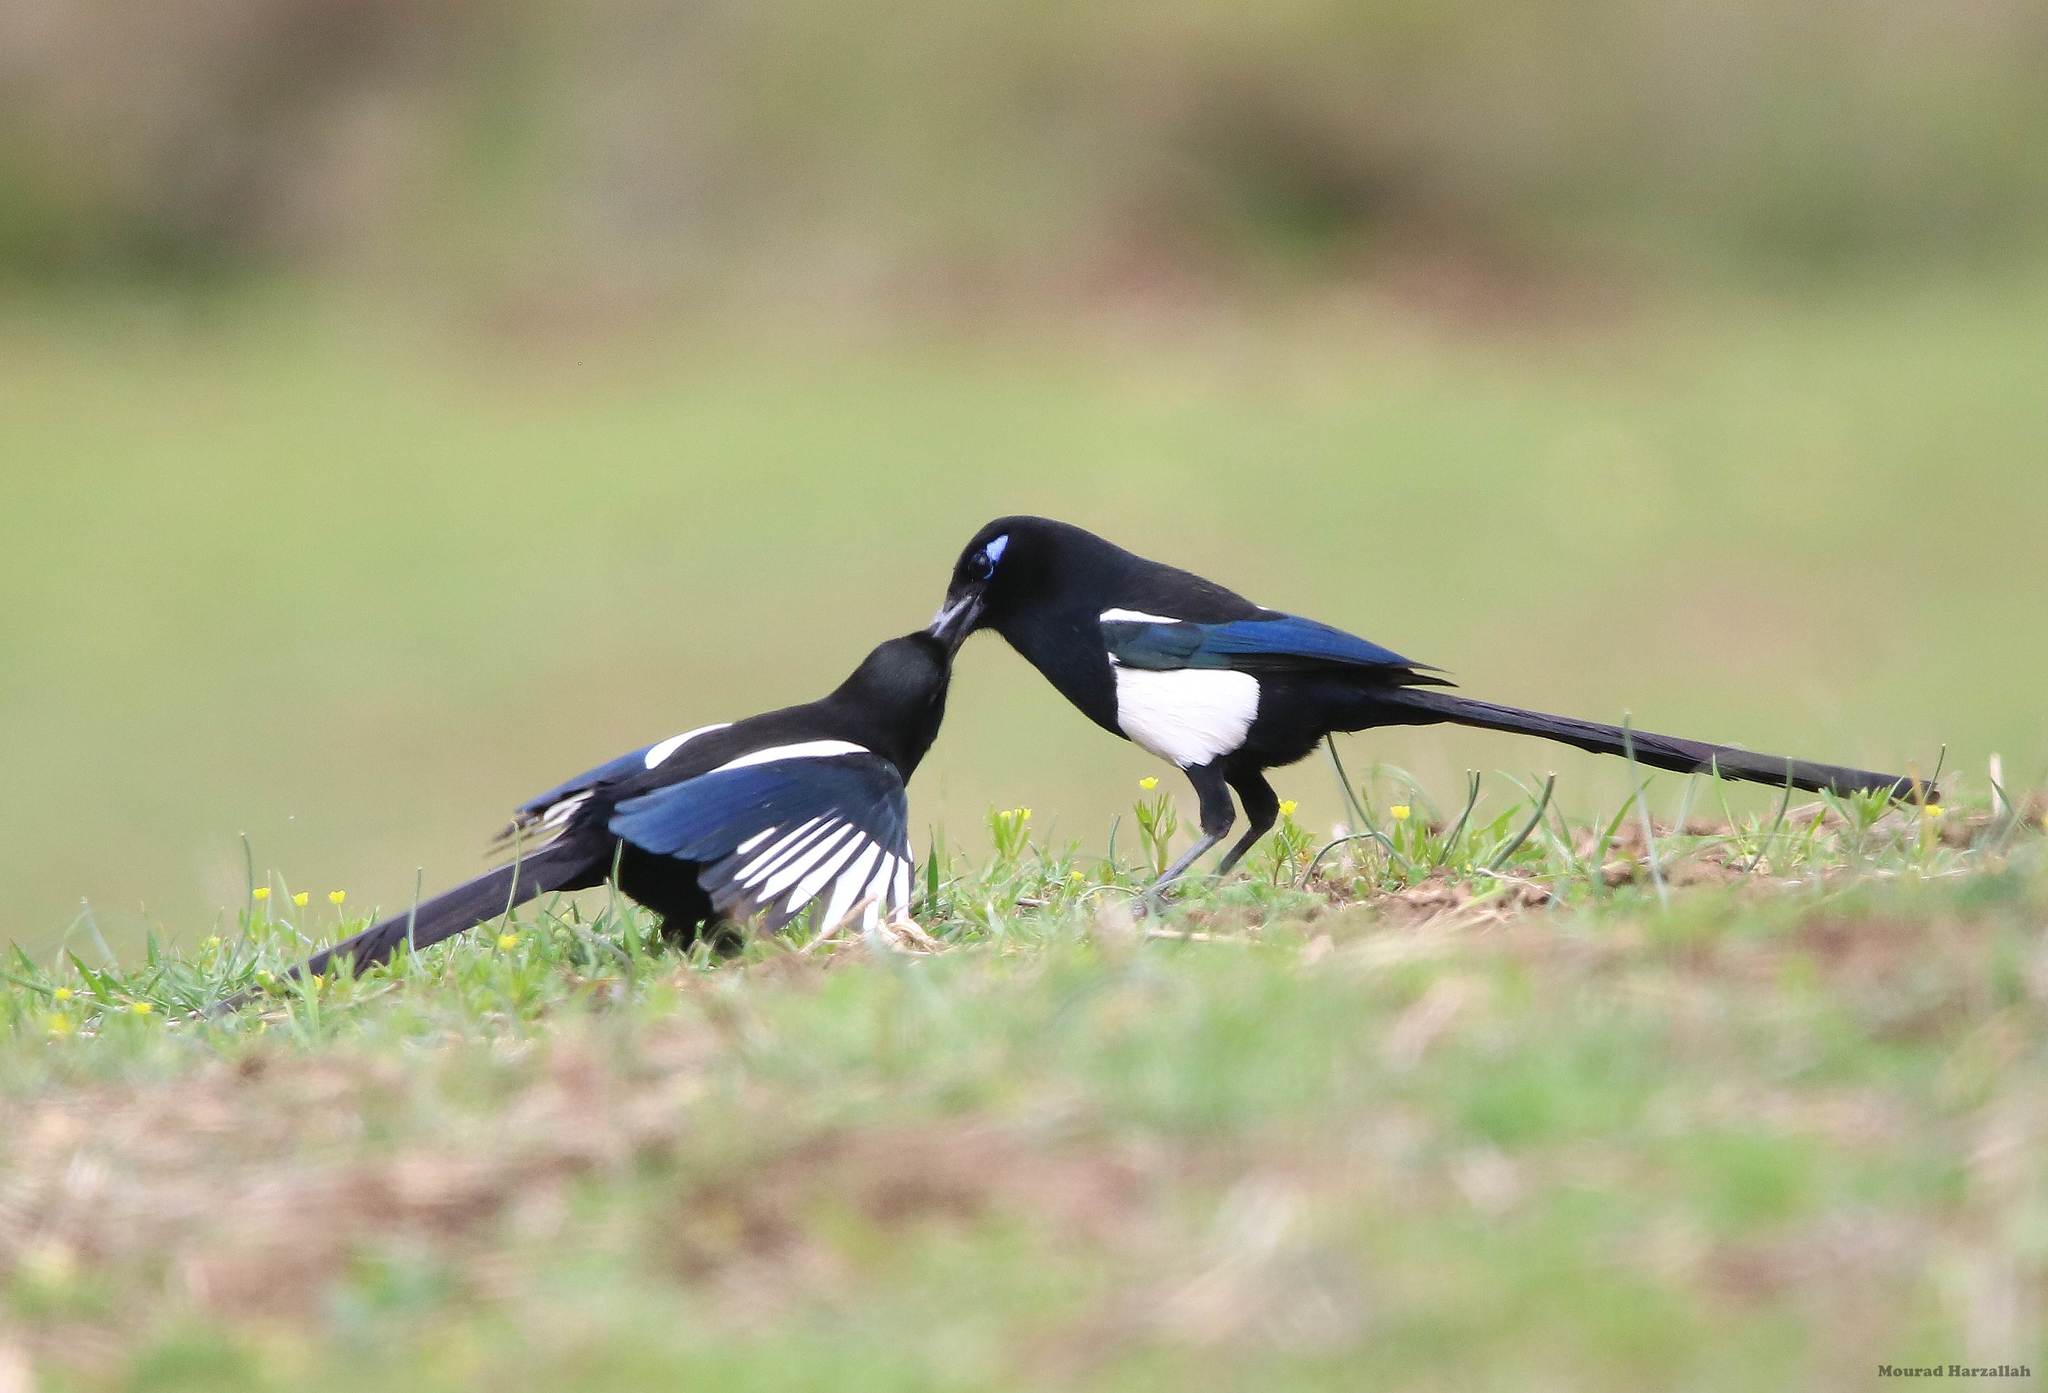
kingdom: Animalia
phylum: Chordata
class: Aves
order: Passeriformes
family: Corvidae
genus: Pica
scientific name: Pica mauritanica
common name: Maghreb magpie
